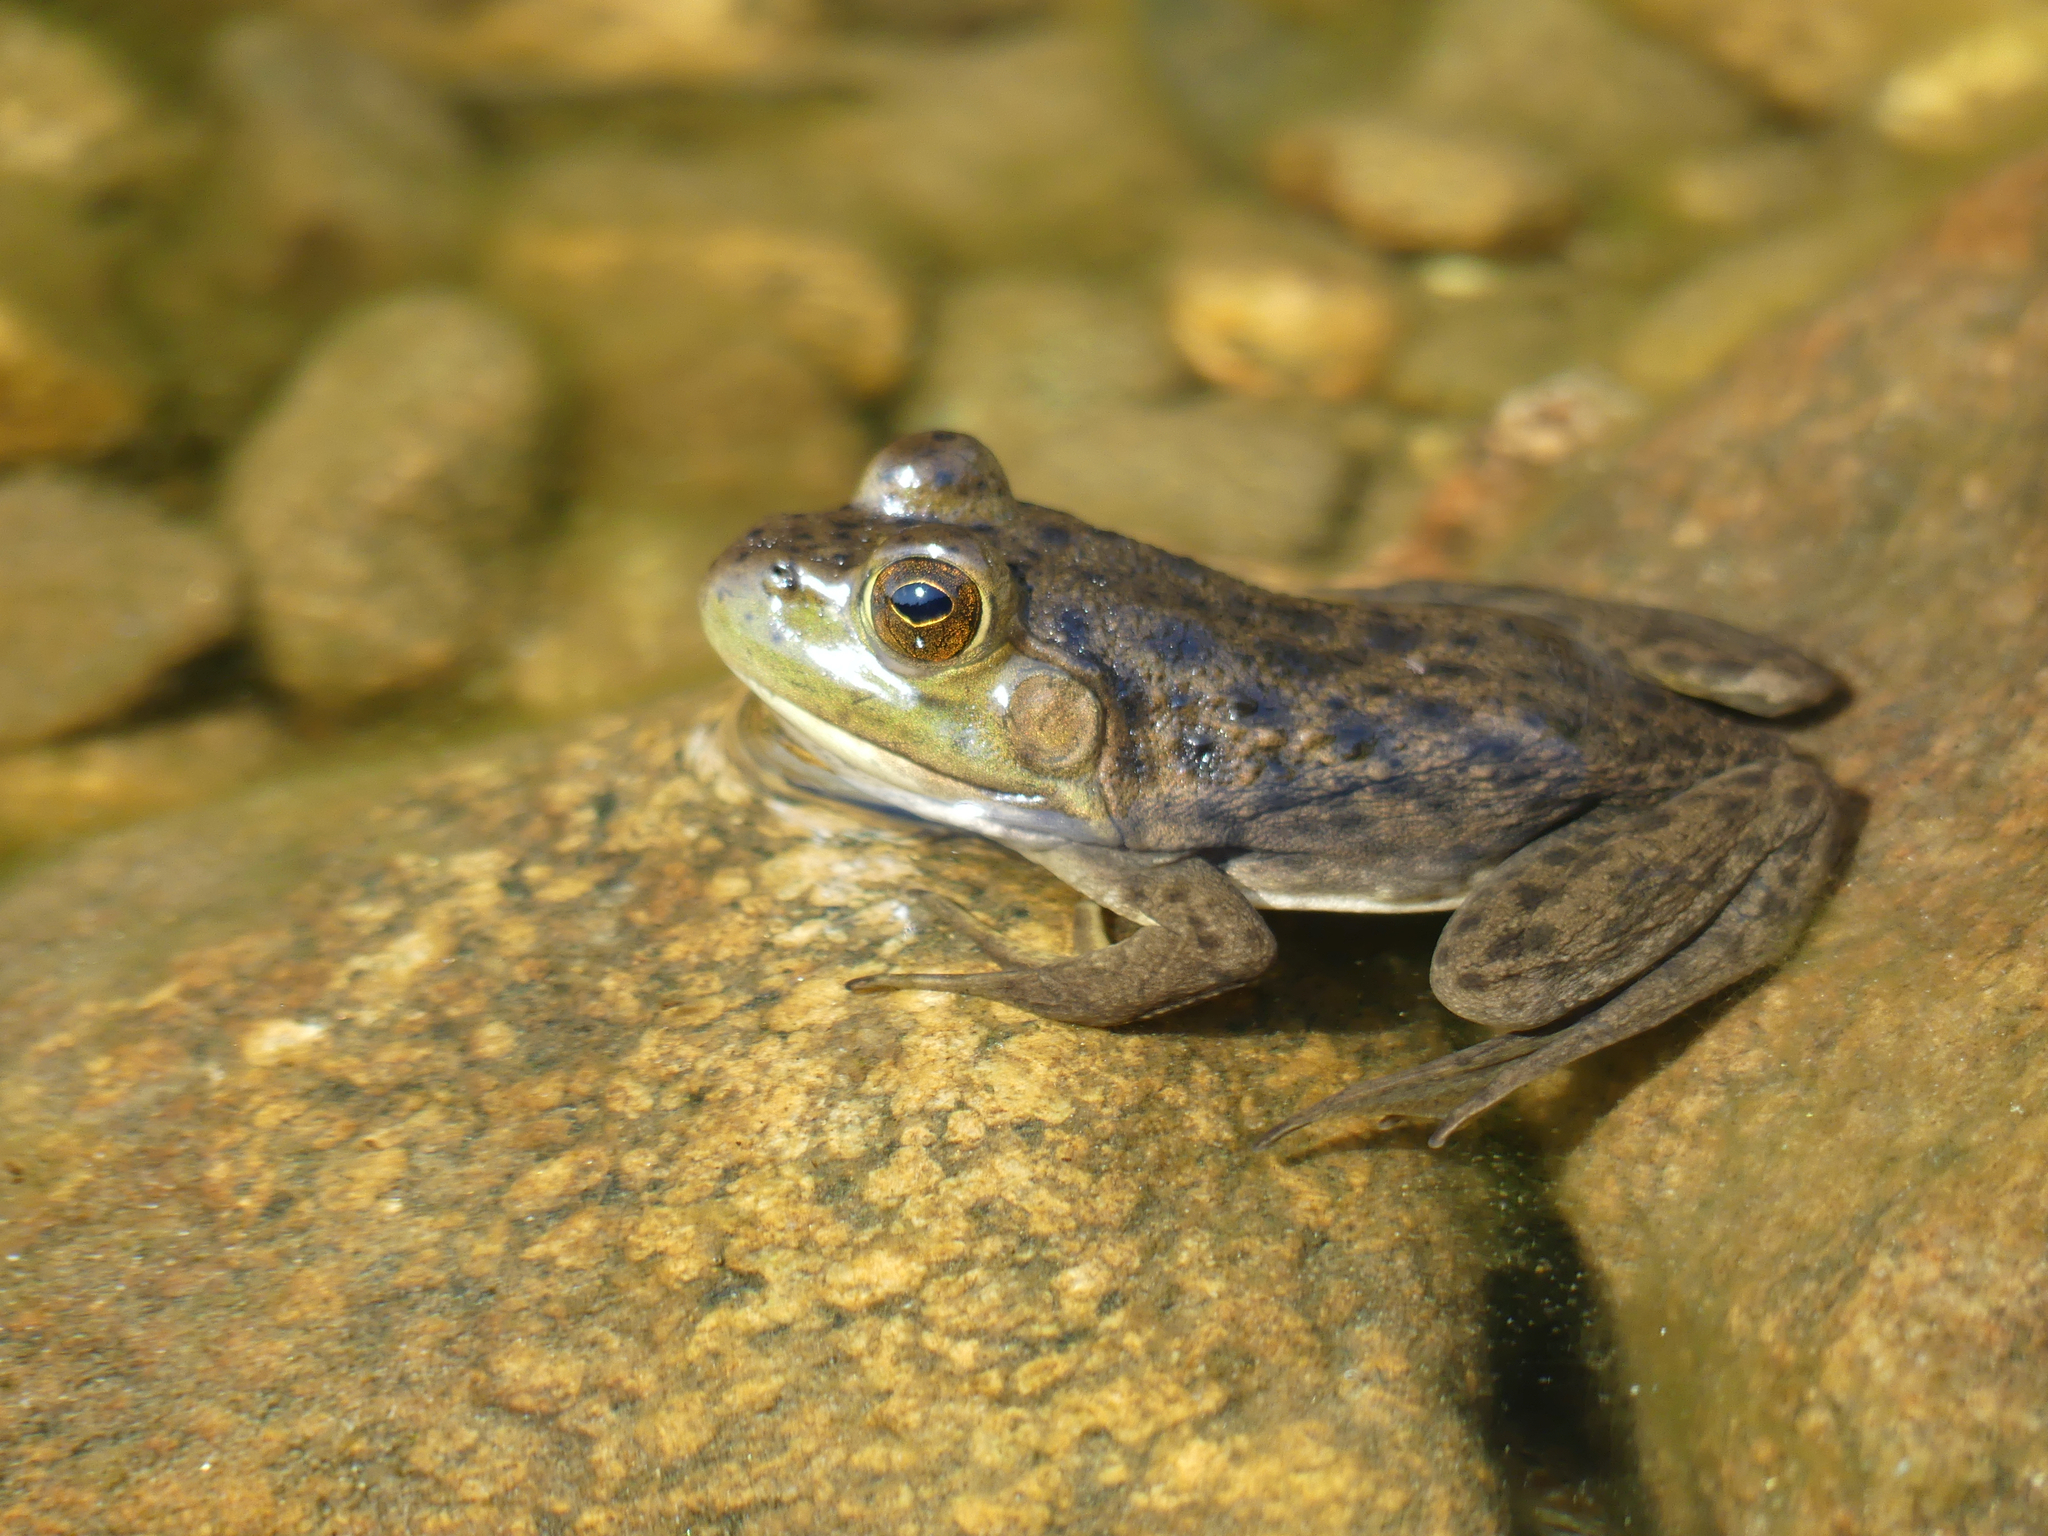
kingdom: Animalia
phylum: Chordata
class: Amphibia
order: Anura
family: Ranidae
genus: Lithobates
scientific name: Lithobates catesbeianus
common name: American bullfrog
